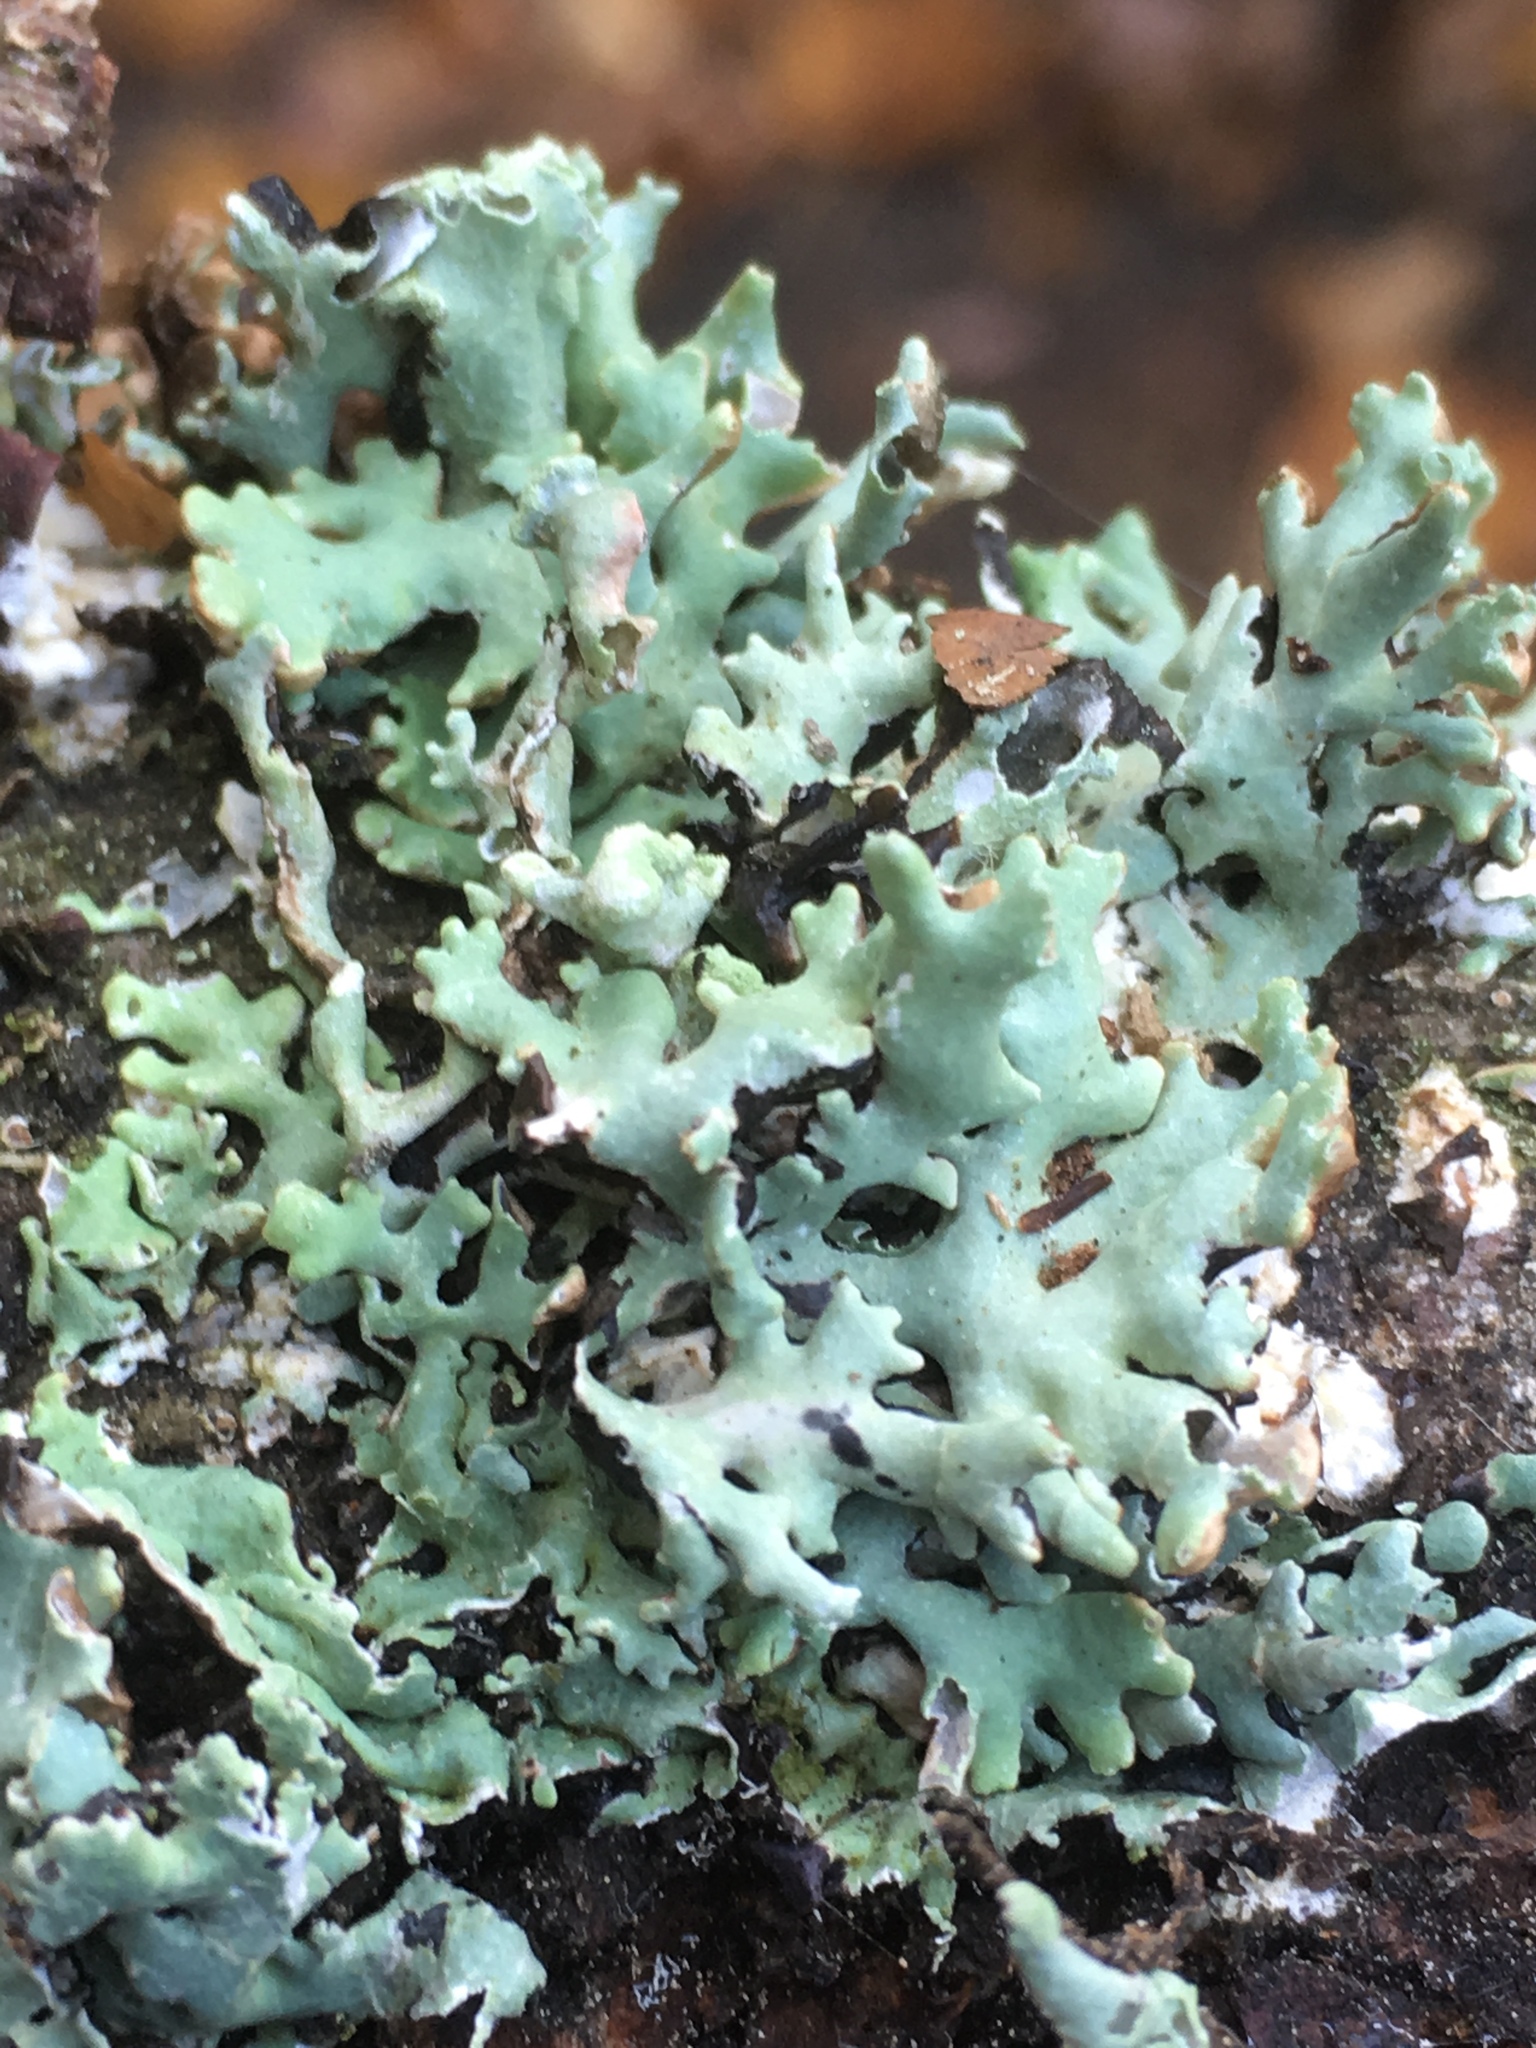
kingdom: Fungi
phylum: Ascomycota
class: Lecanoromycetes
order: Lecanorales
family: Parmeliaceae
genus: Hypogymnia
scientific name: Hypogymnia physodes
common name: Dark crottle
